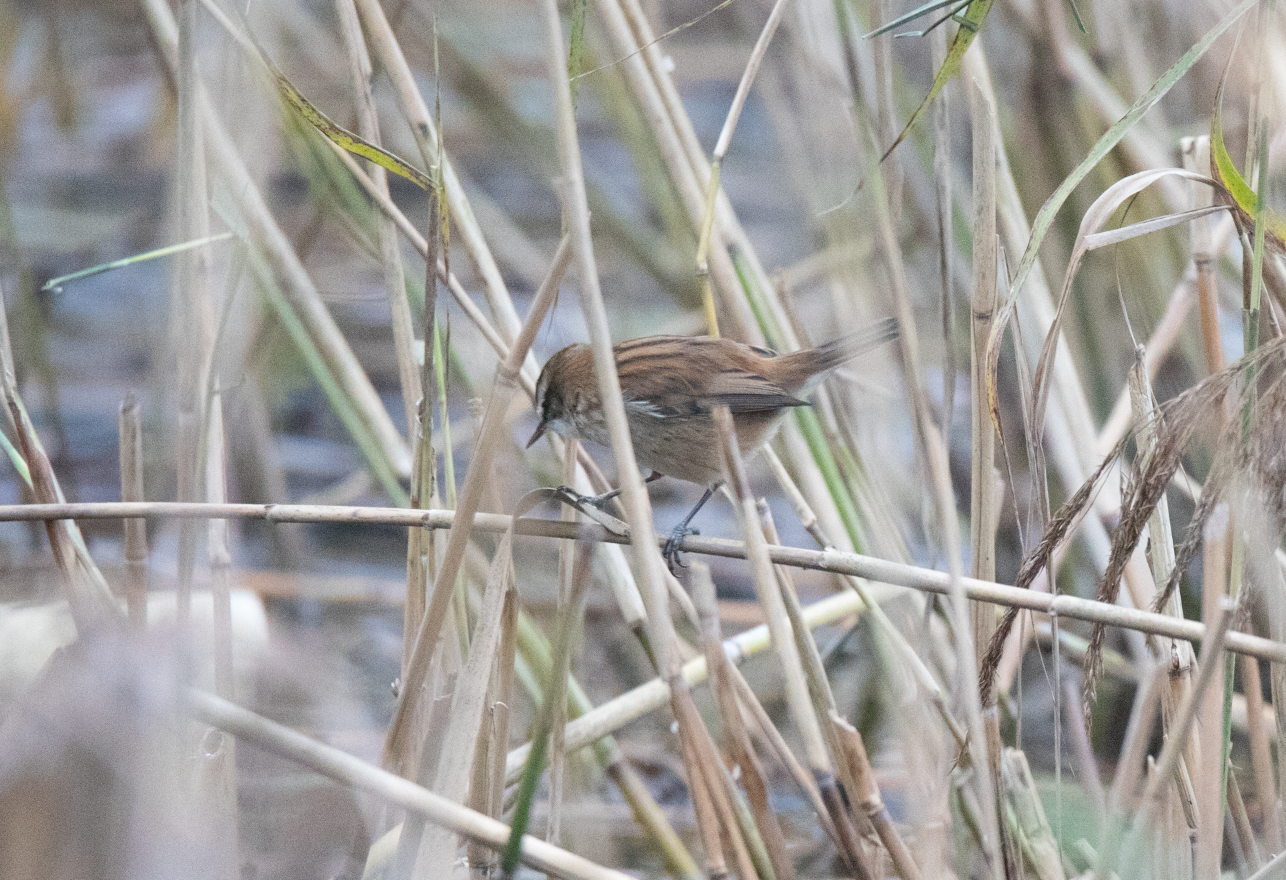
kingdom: Animalia
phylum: Chordata
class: Aves
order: Passeriformes
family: Acrocephalidae
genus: Acrocephalus
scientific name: Acrocephalus melanopogon
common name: Moustached warbler
